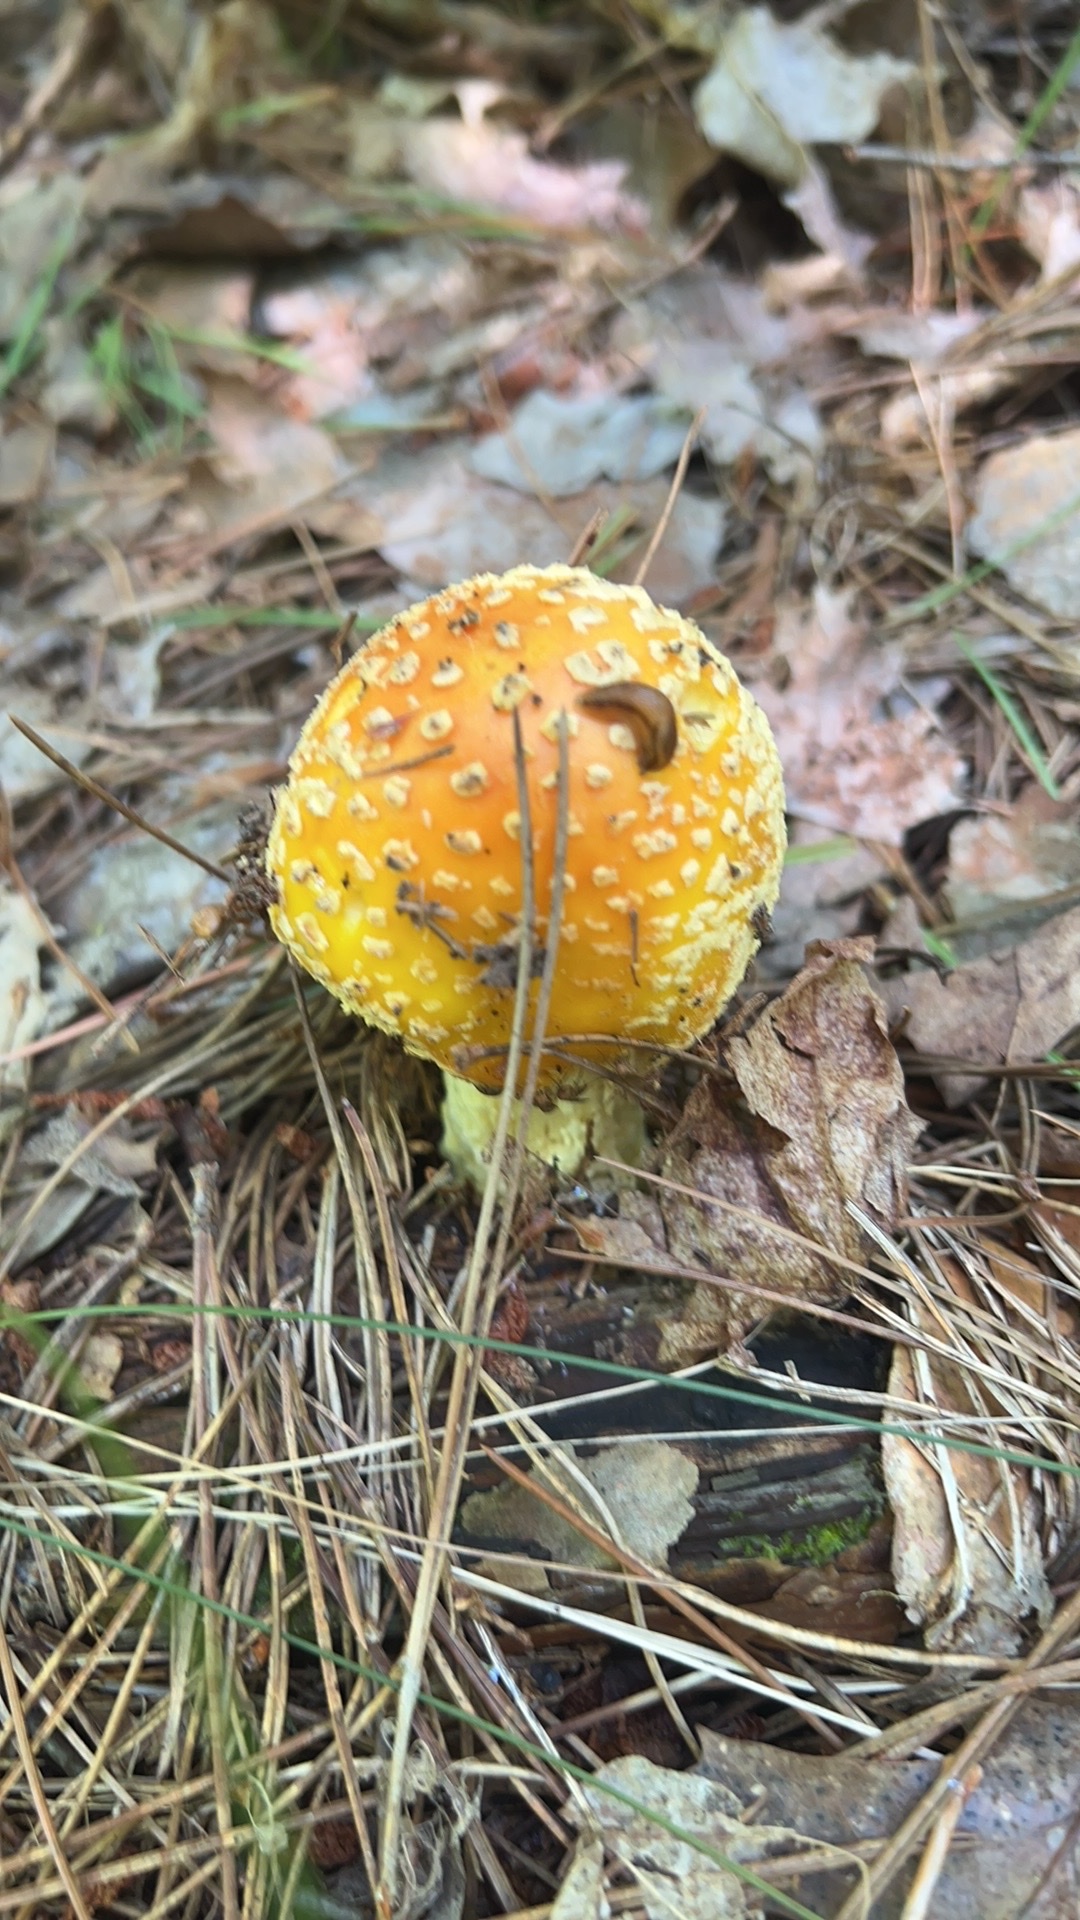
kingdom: Fungi
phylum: Basidiomycota
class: Agaricomycetes
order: Agaricales
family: Amanitaceae
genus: Amanita
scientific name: Amanita flavoconia
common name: Yellow patches
